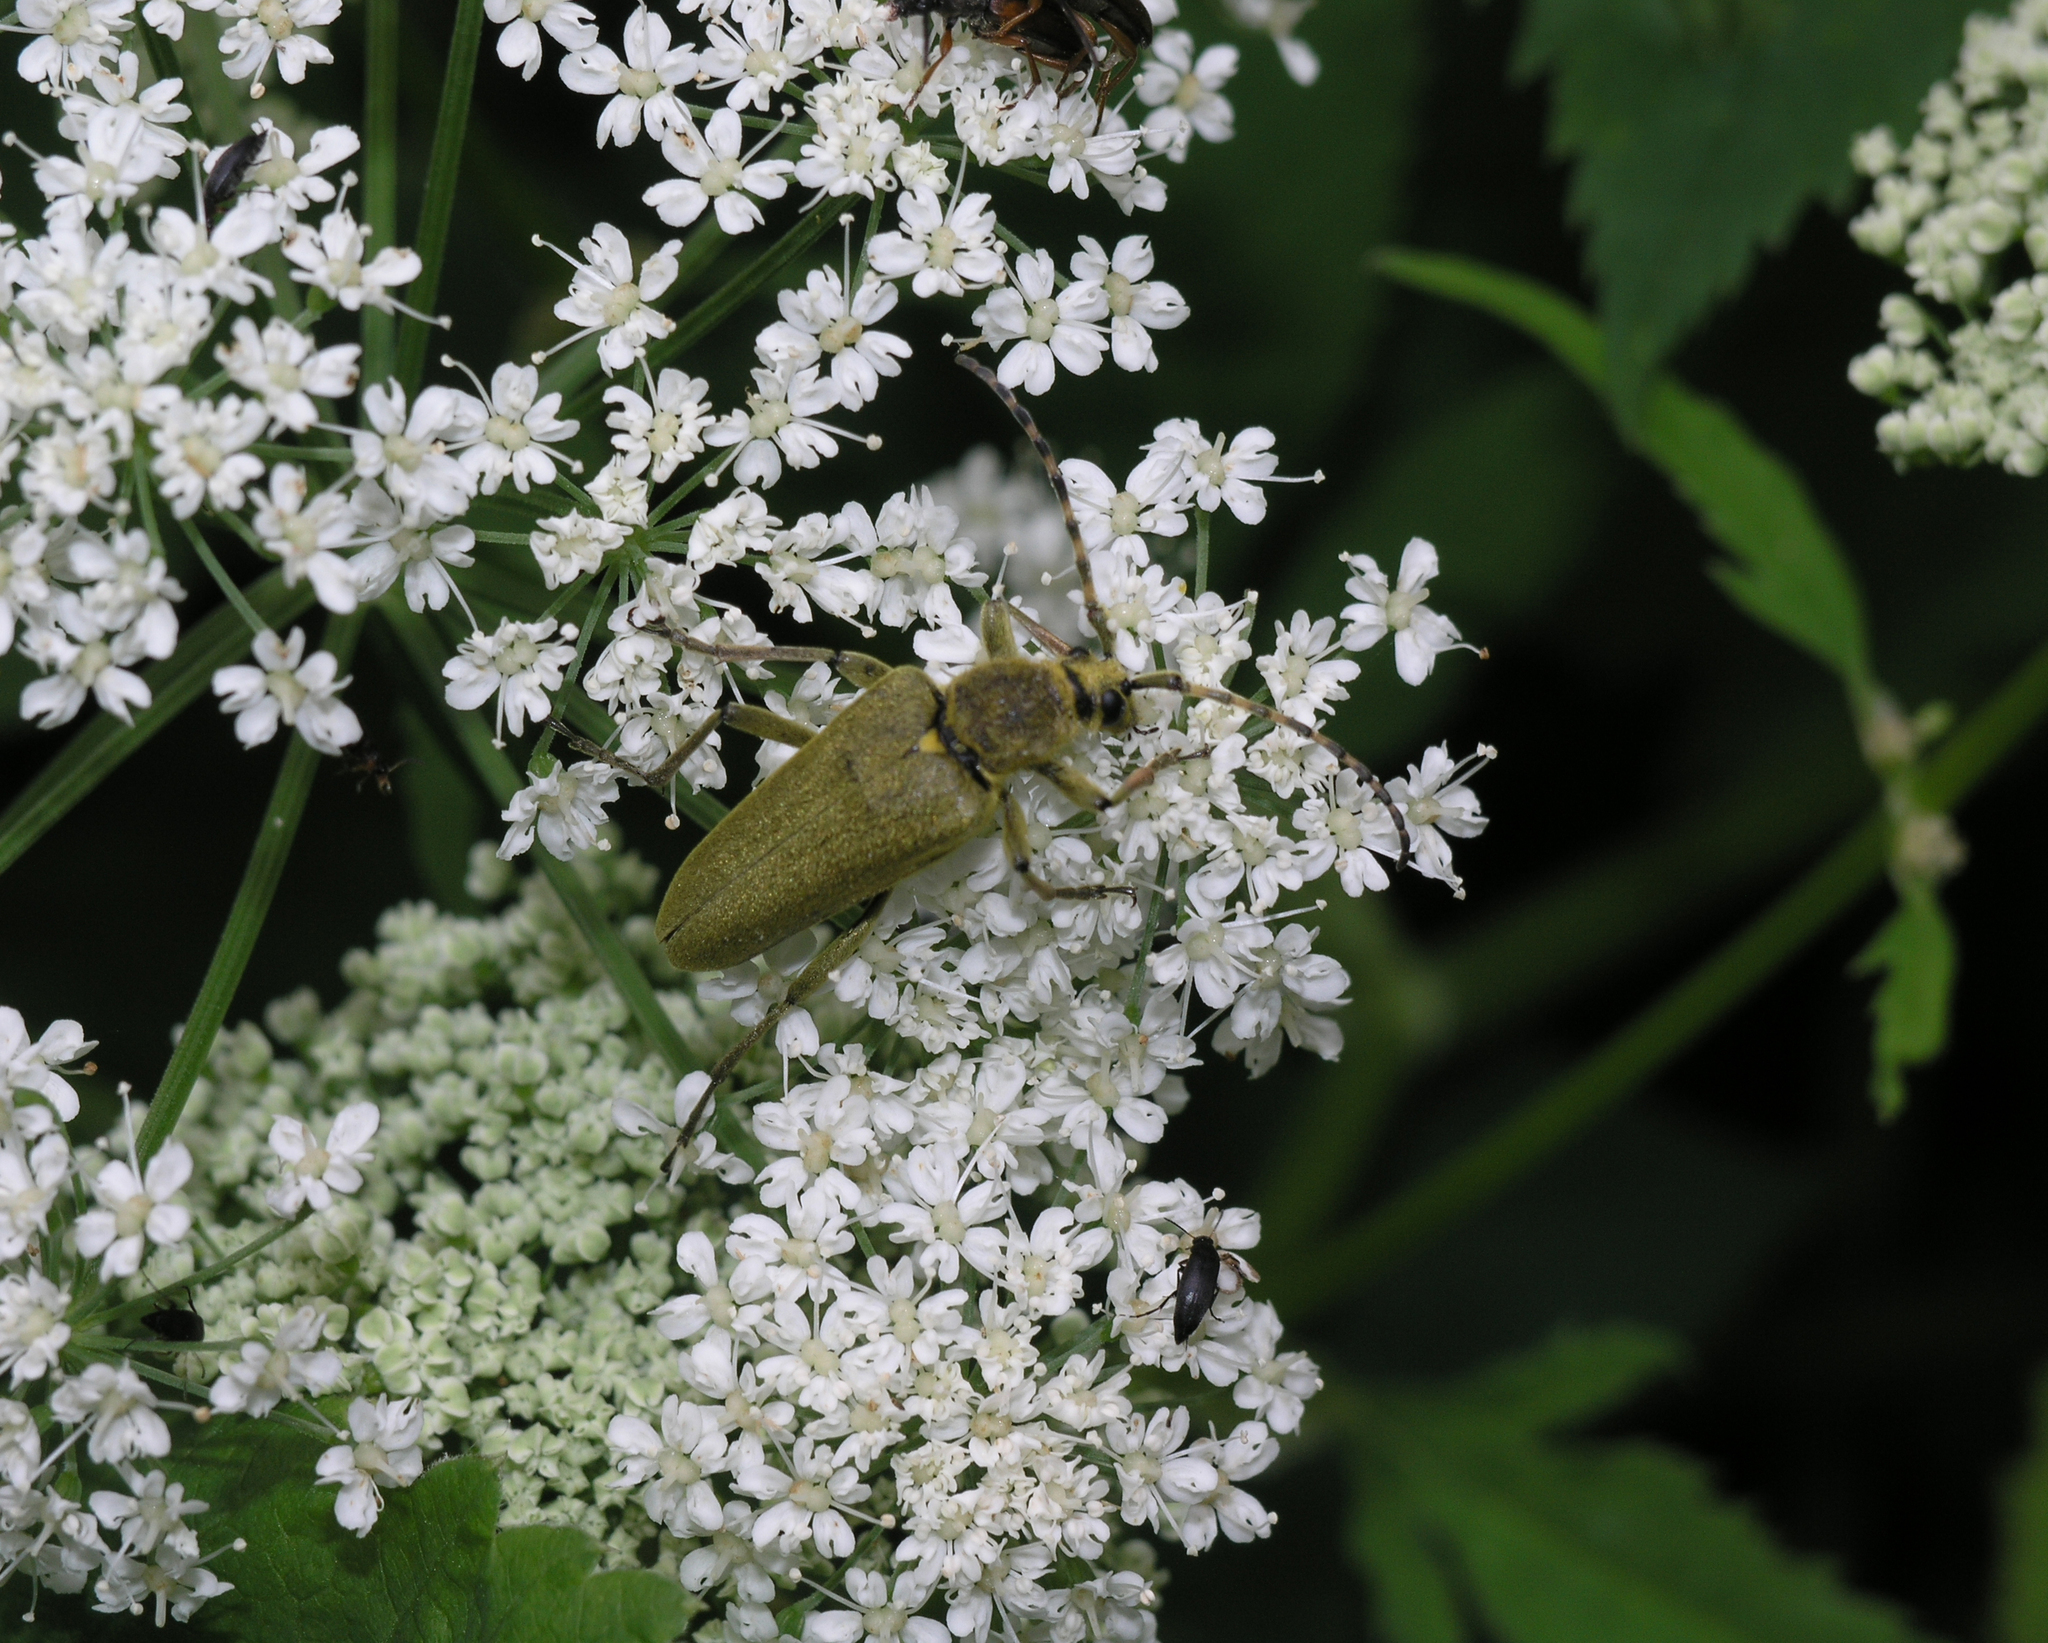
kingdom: Animalia
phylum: Arthropoda
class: Insecta
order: Coleoptera
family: Cerambycidae
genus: Lepturobosca
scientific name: Lepturobosca virens
